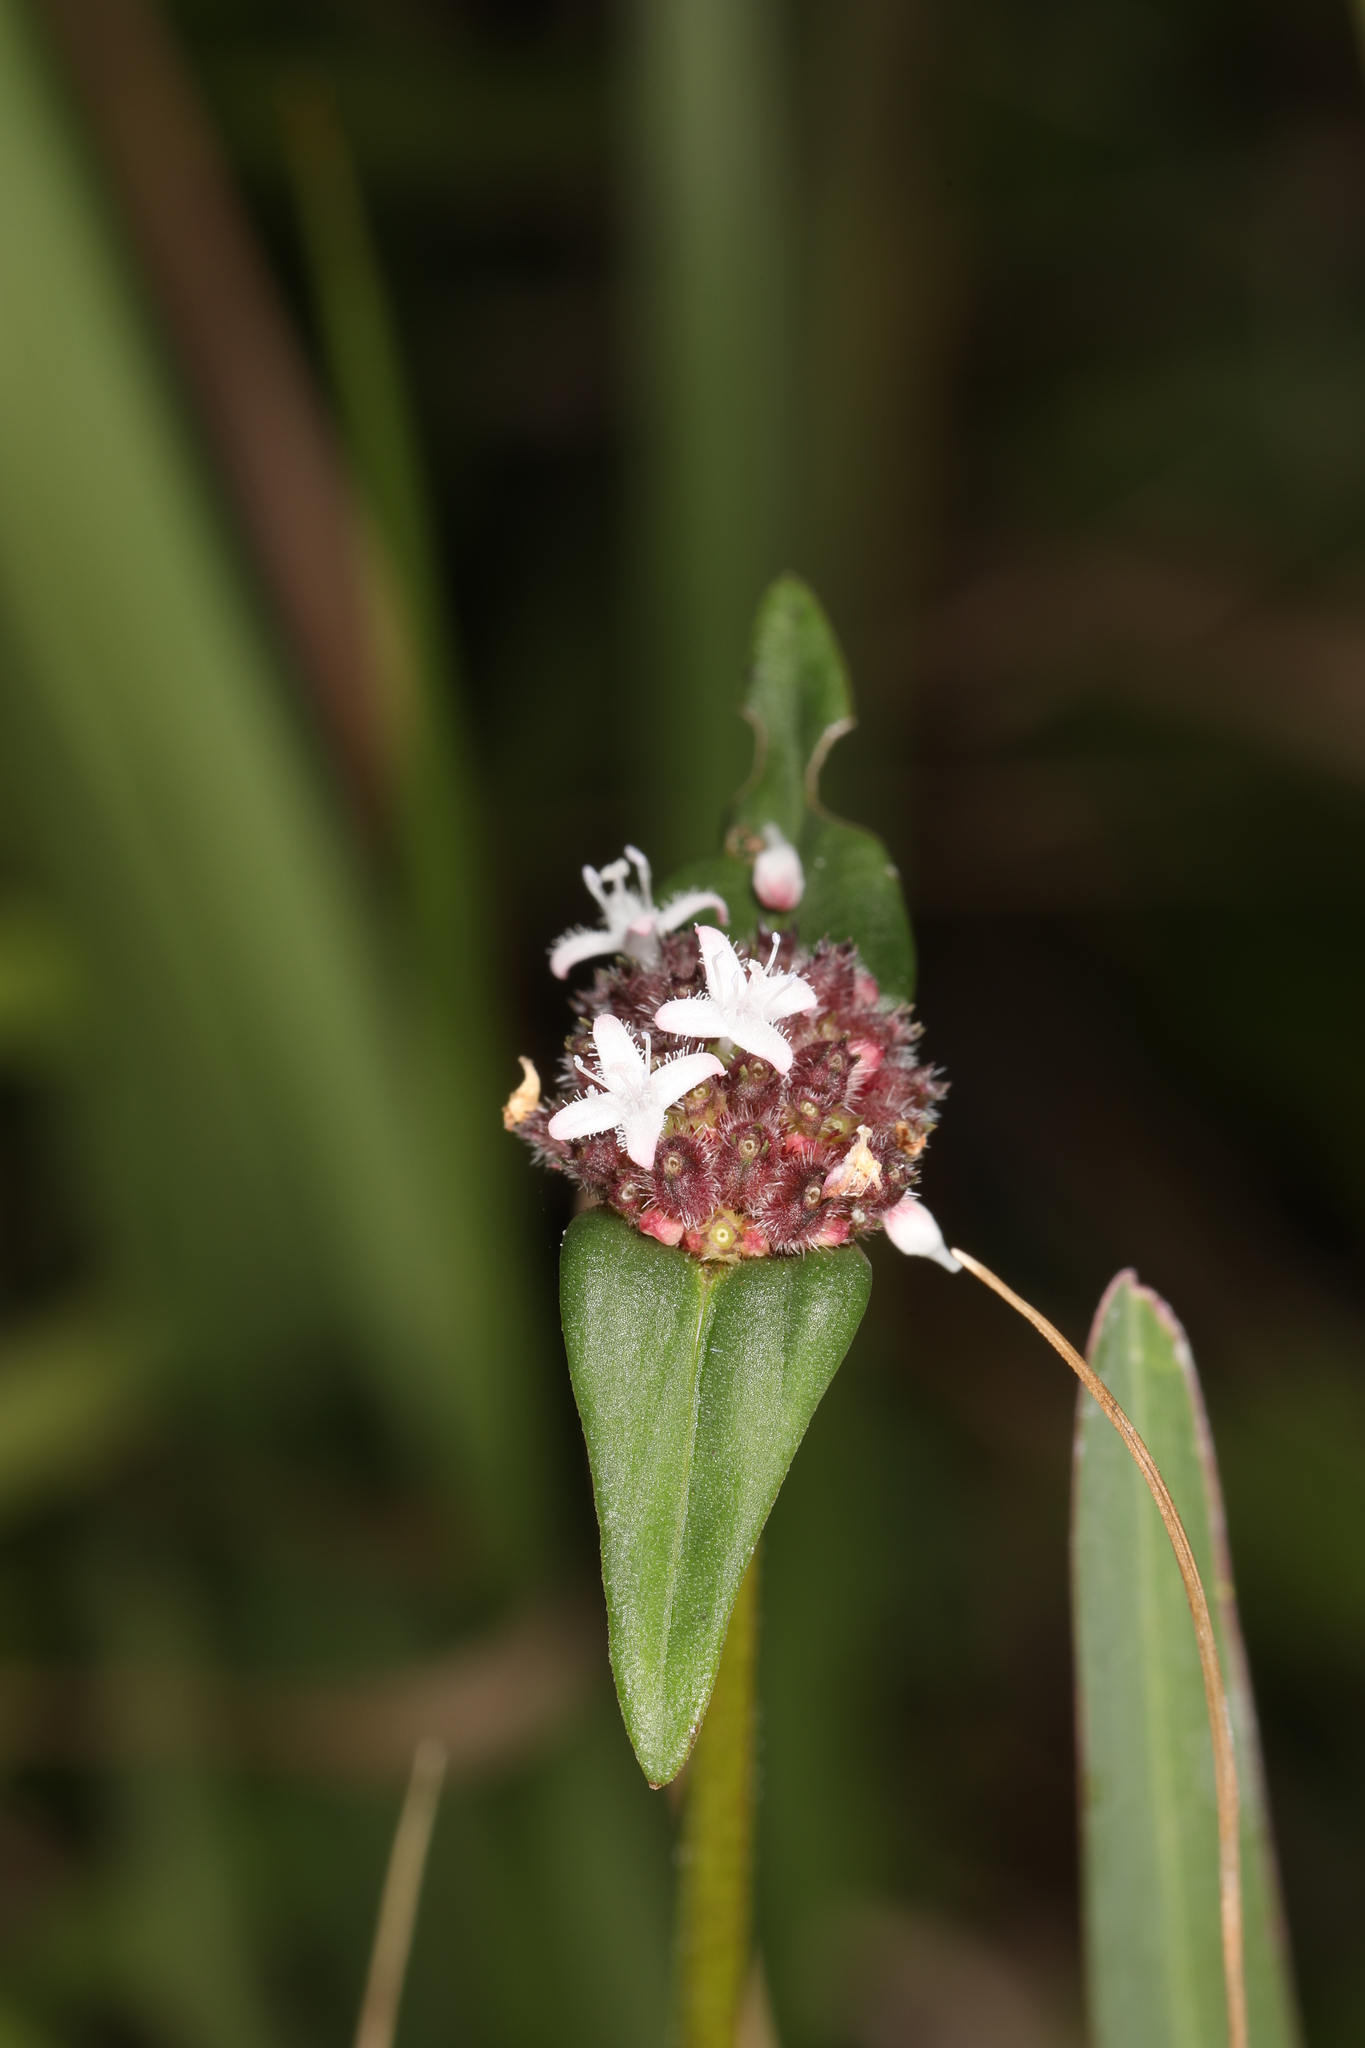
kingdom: Plantae
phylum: Tracheophyta
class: Magnoliopsida
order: Gentianales
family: Rubiaceae
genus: Spermacoce
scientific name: Spermacoce remota
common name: Woodland false buttonweed
